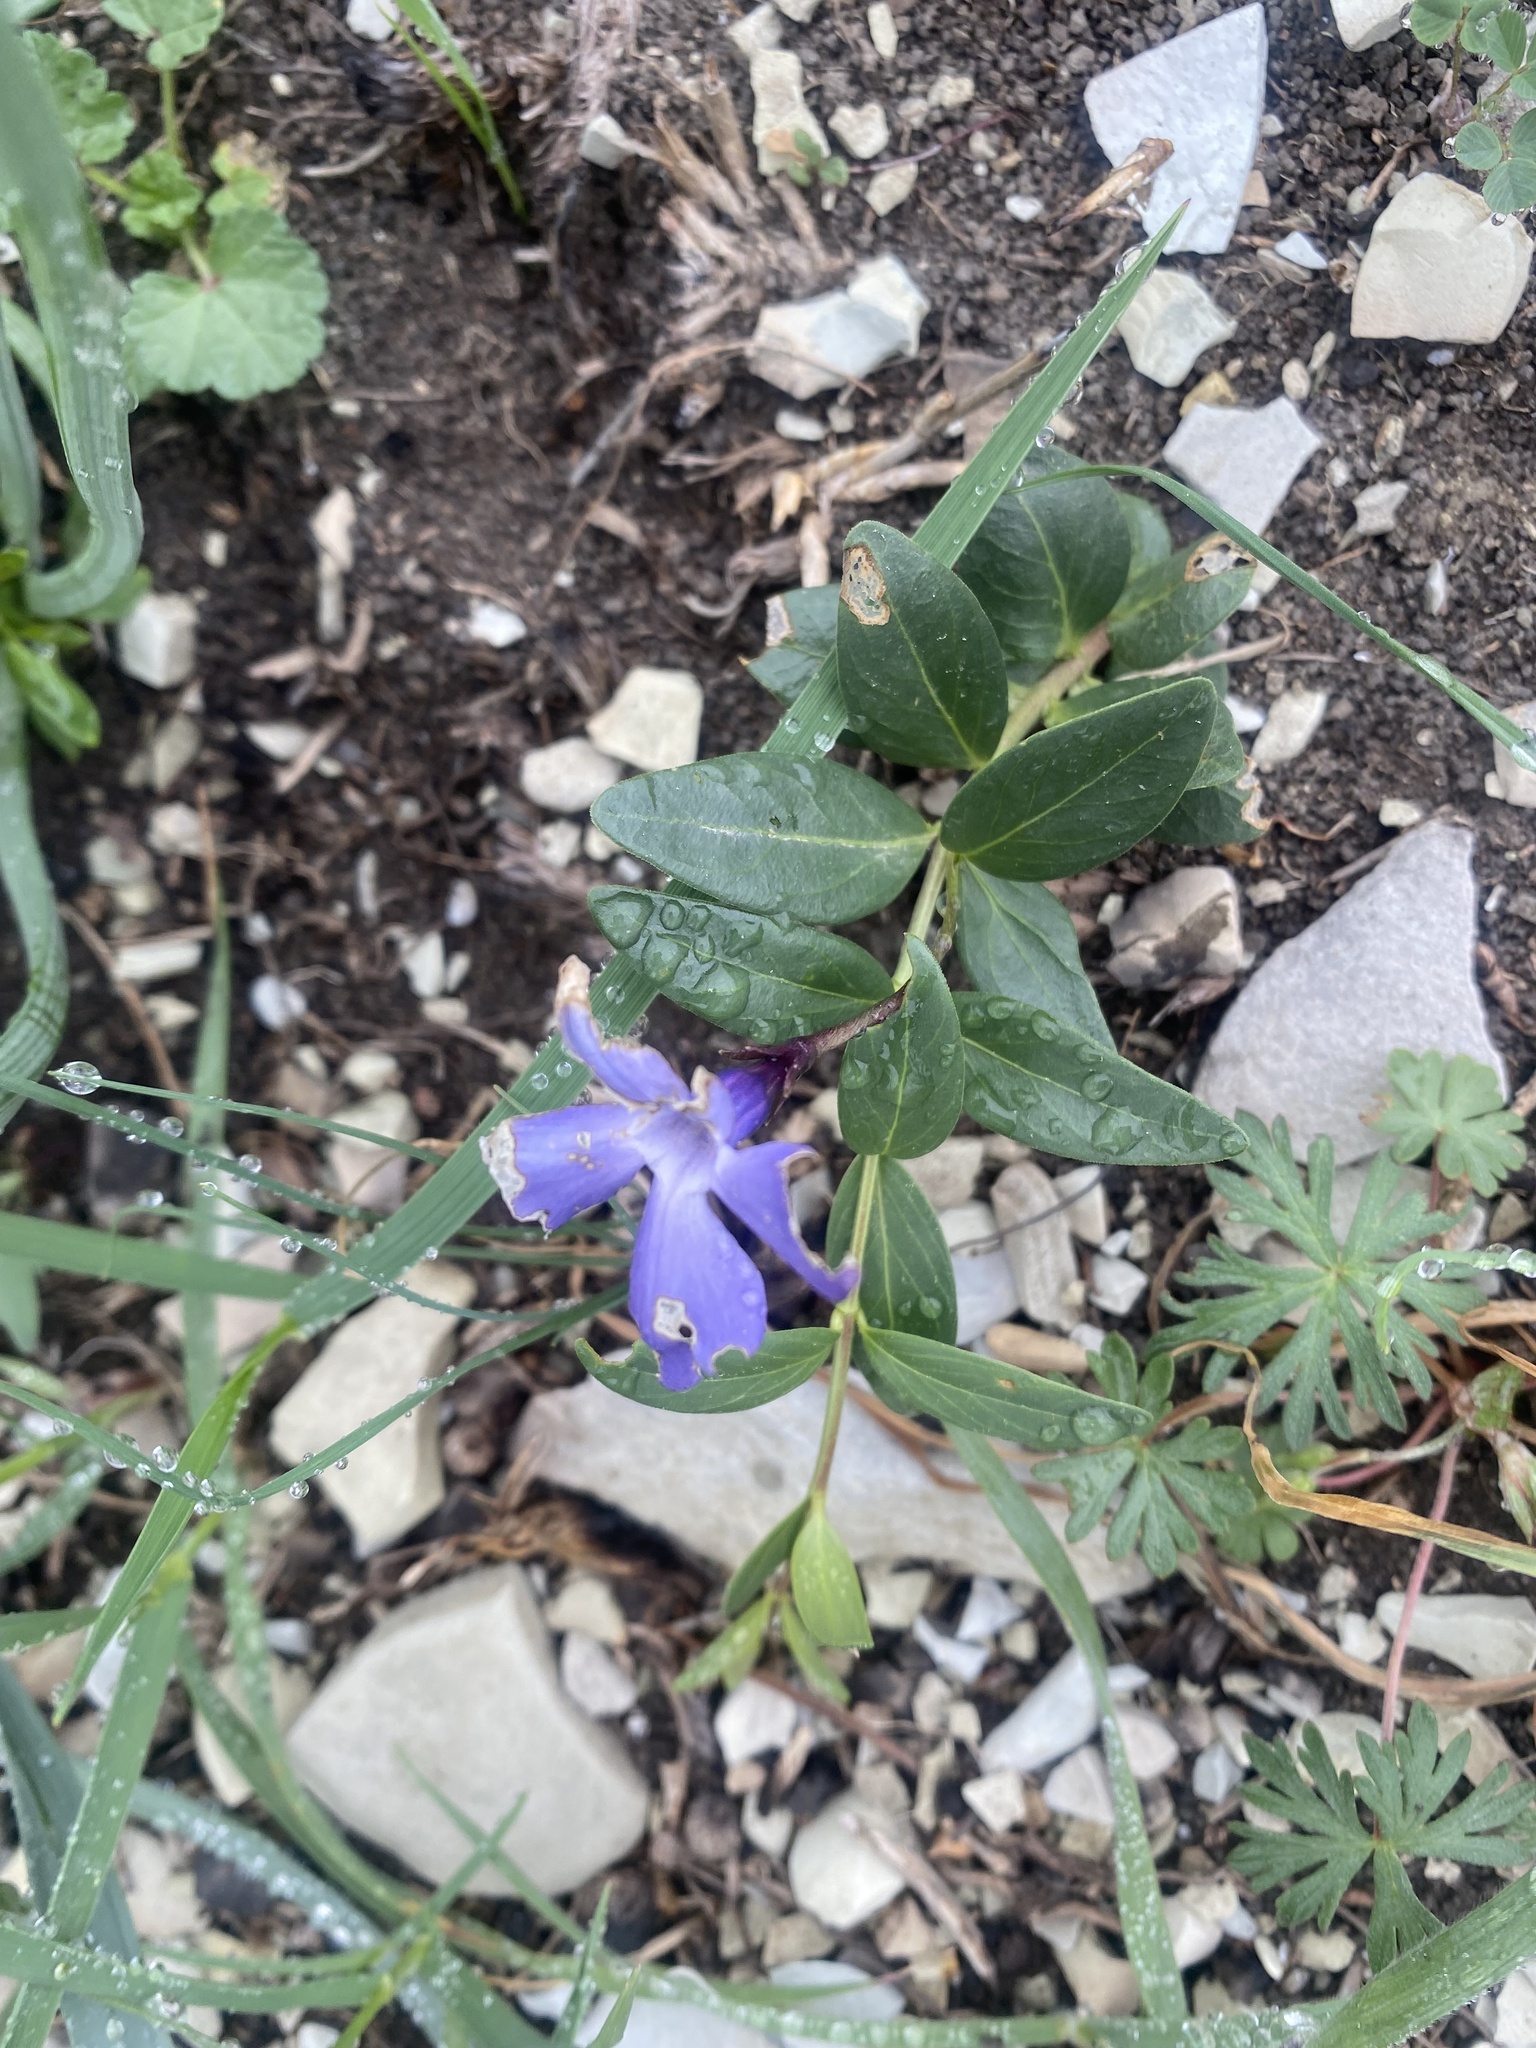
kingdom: Plantae
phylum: Tracheophyta
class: Magnoliopsida
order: Gentianales
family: Apocynaceae
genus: Vinca
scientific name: Vinca herbacea
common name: Herbaceous periwinkle
